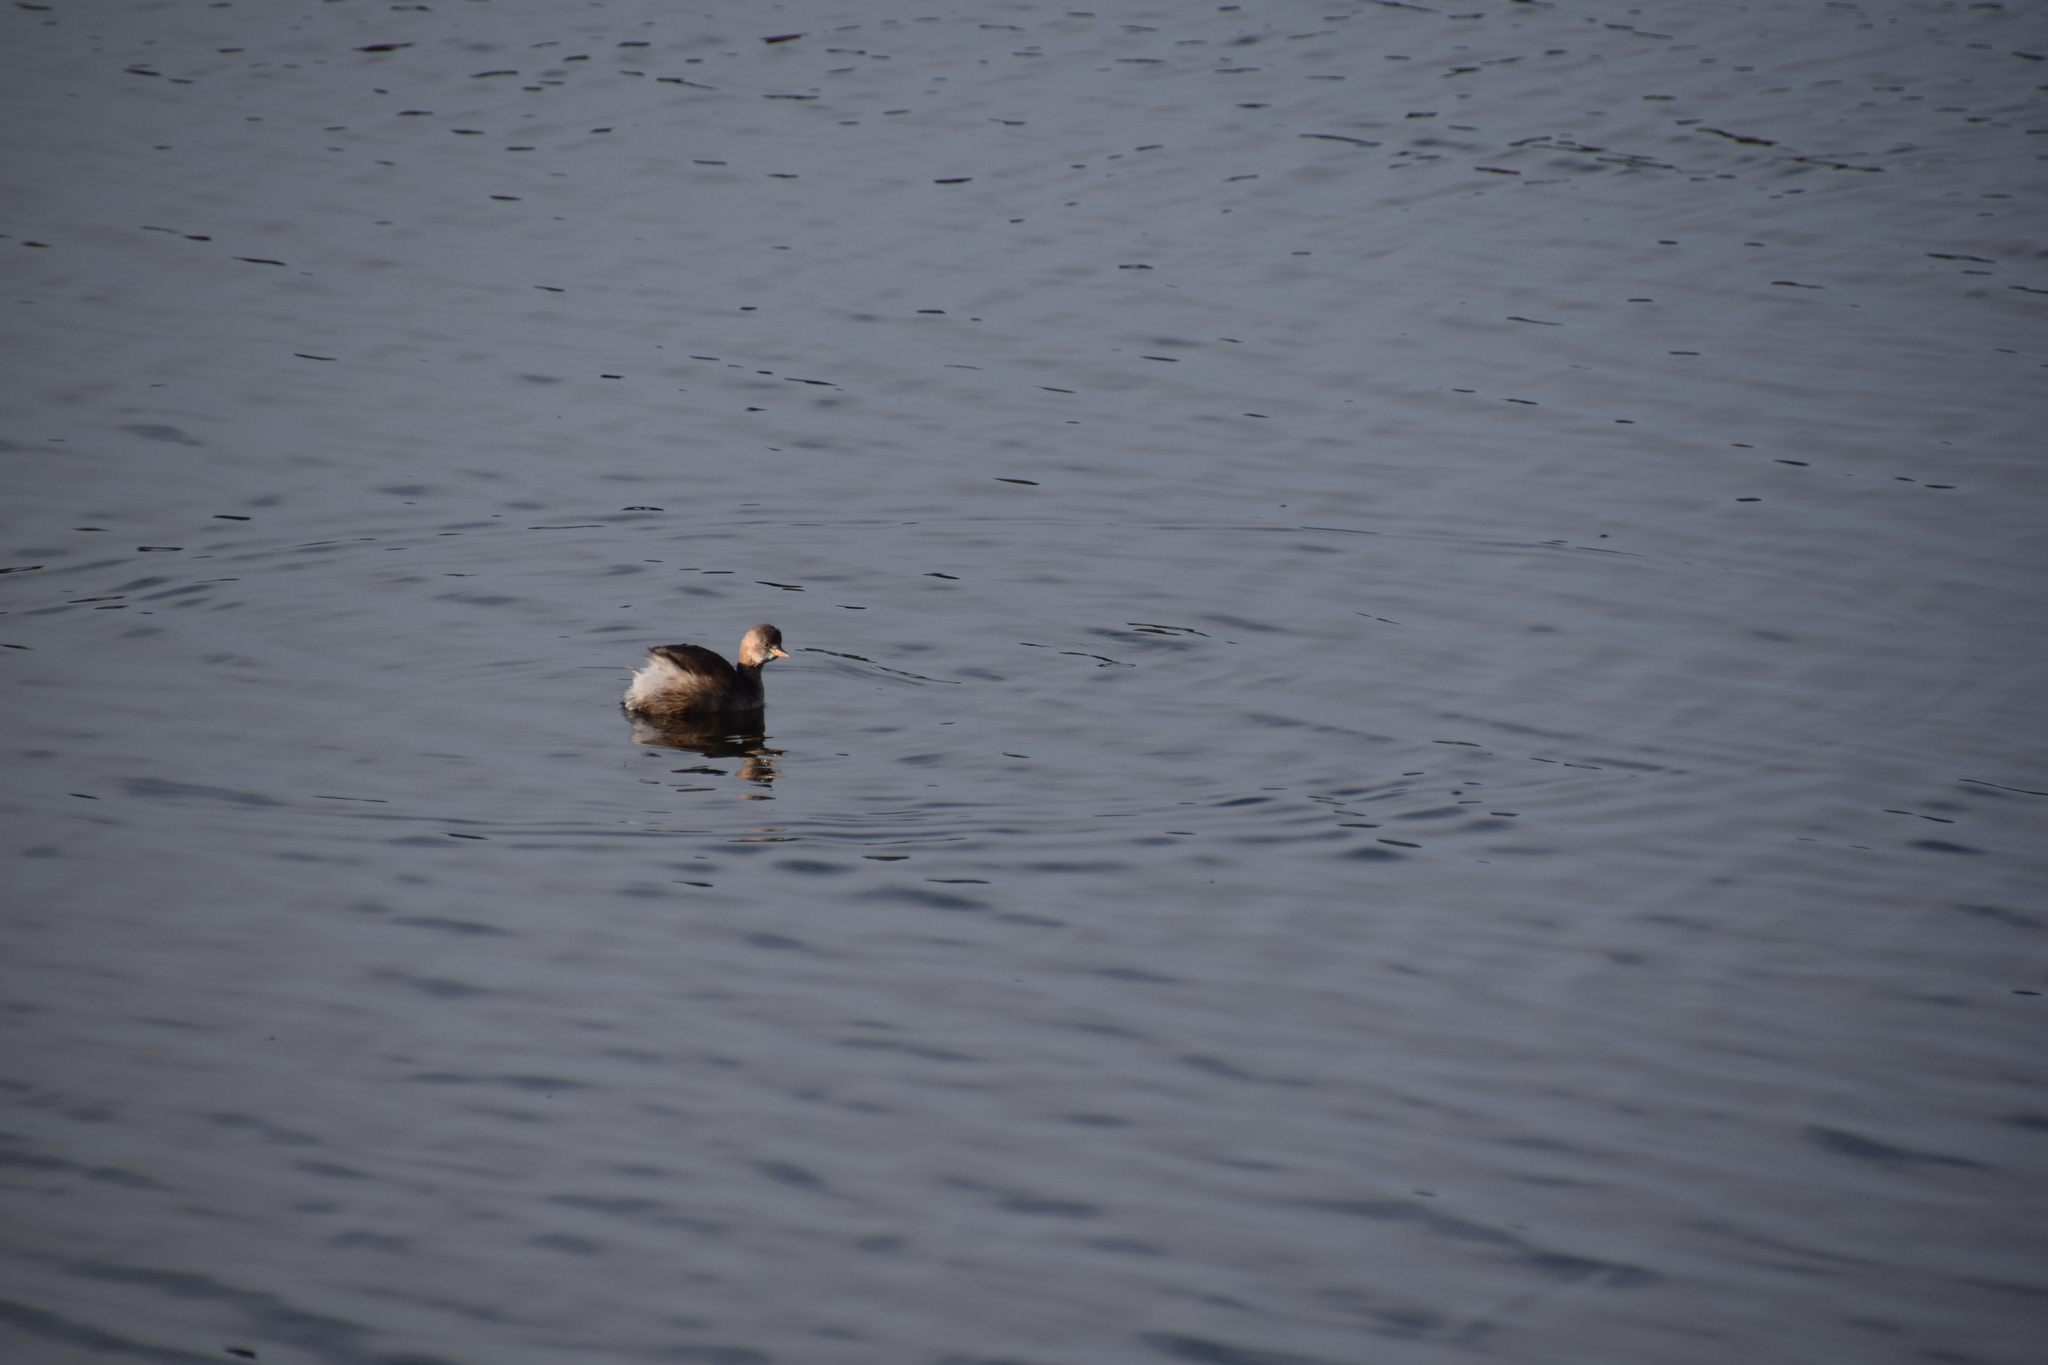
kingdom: Animalia
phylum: Chordata
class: Aves
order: Podicipediformes
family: Podicipedidae
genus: Tachybaptus
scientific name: Tachybaptus ruficollis
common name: Little grebe
